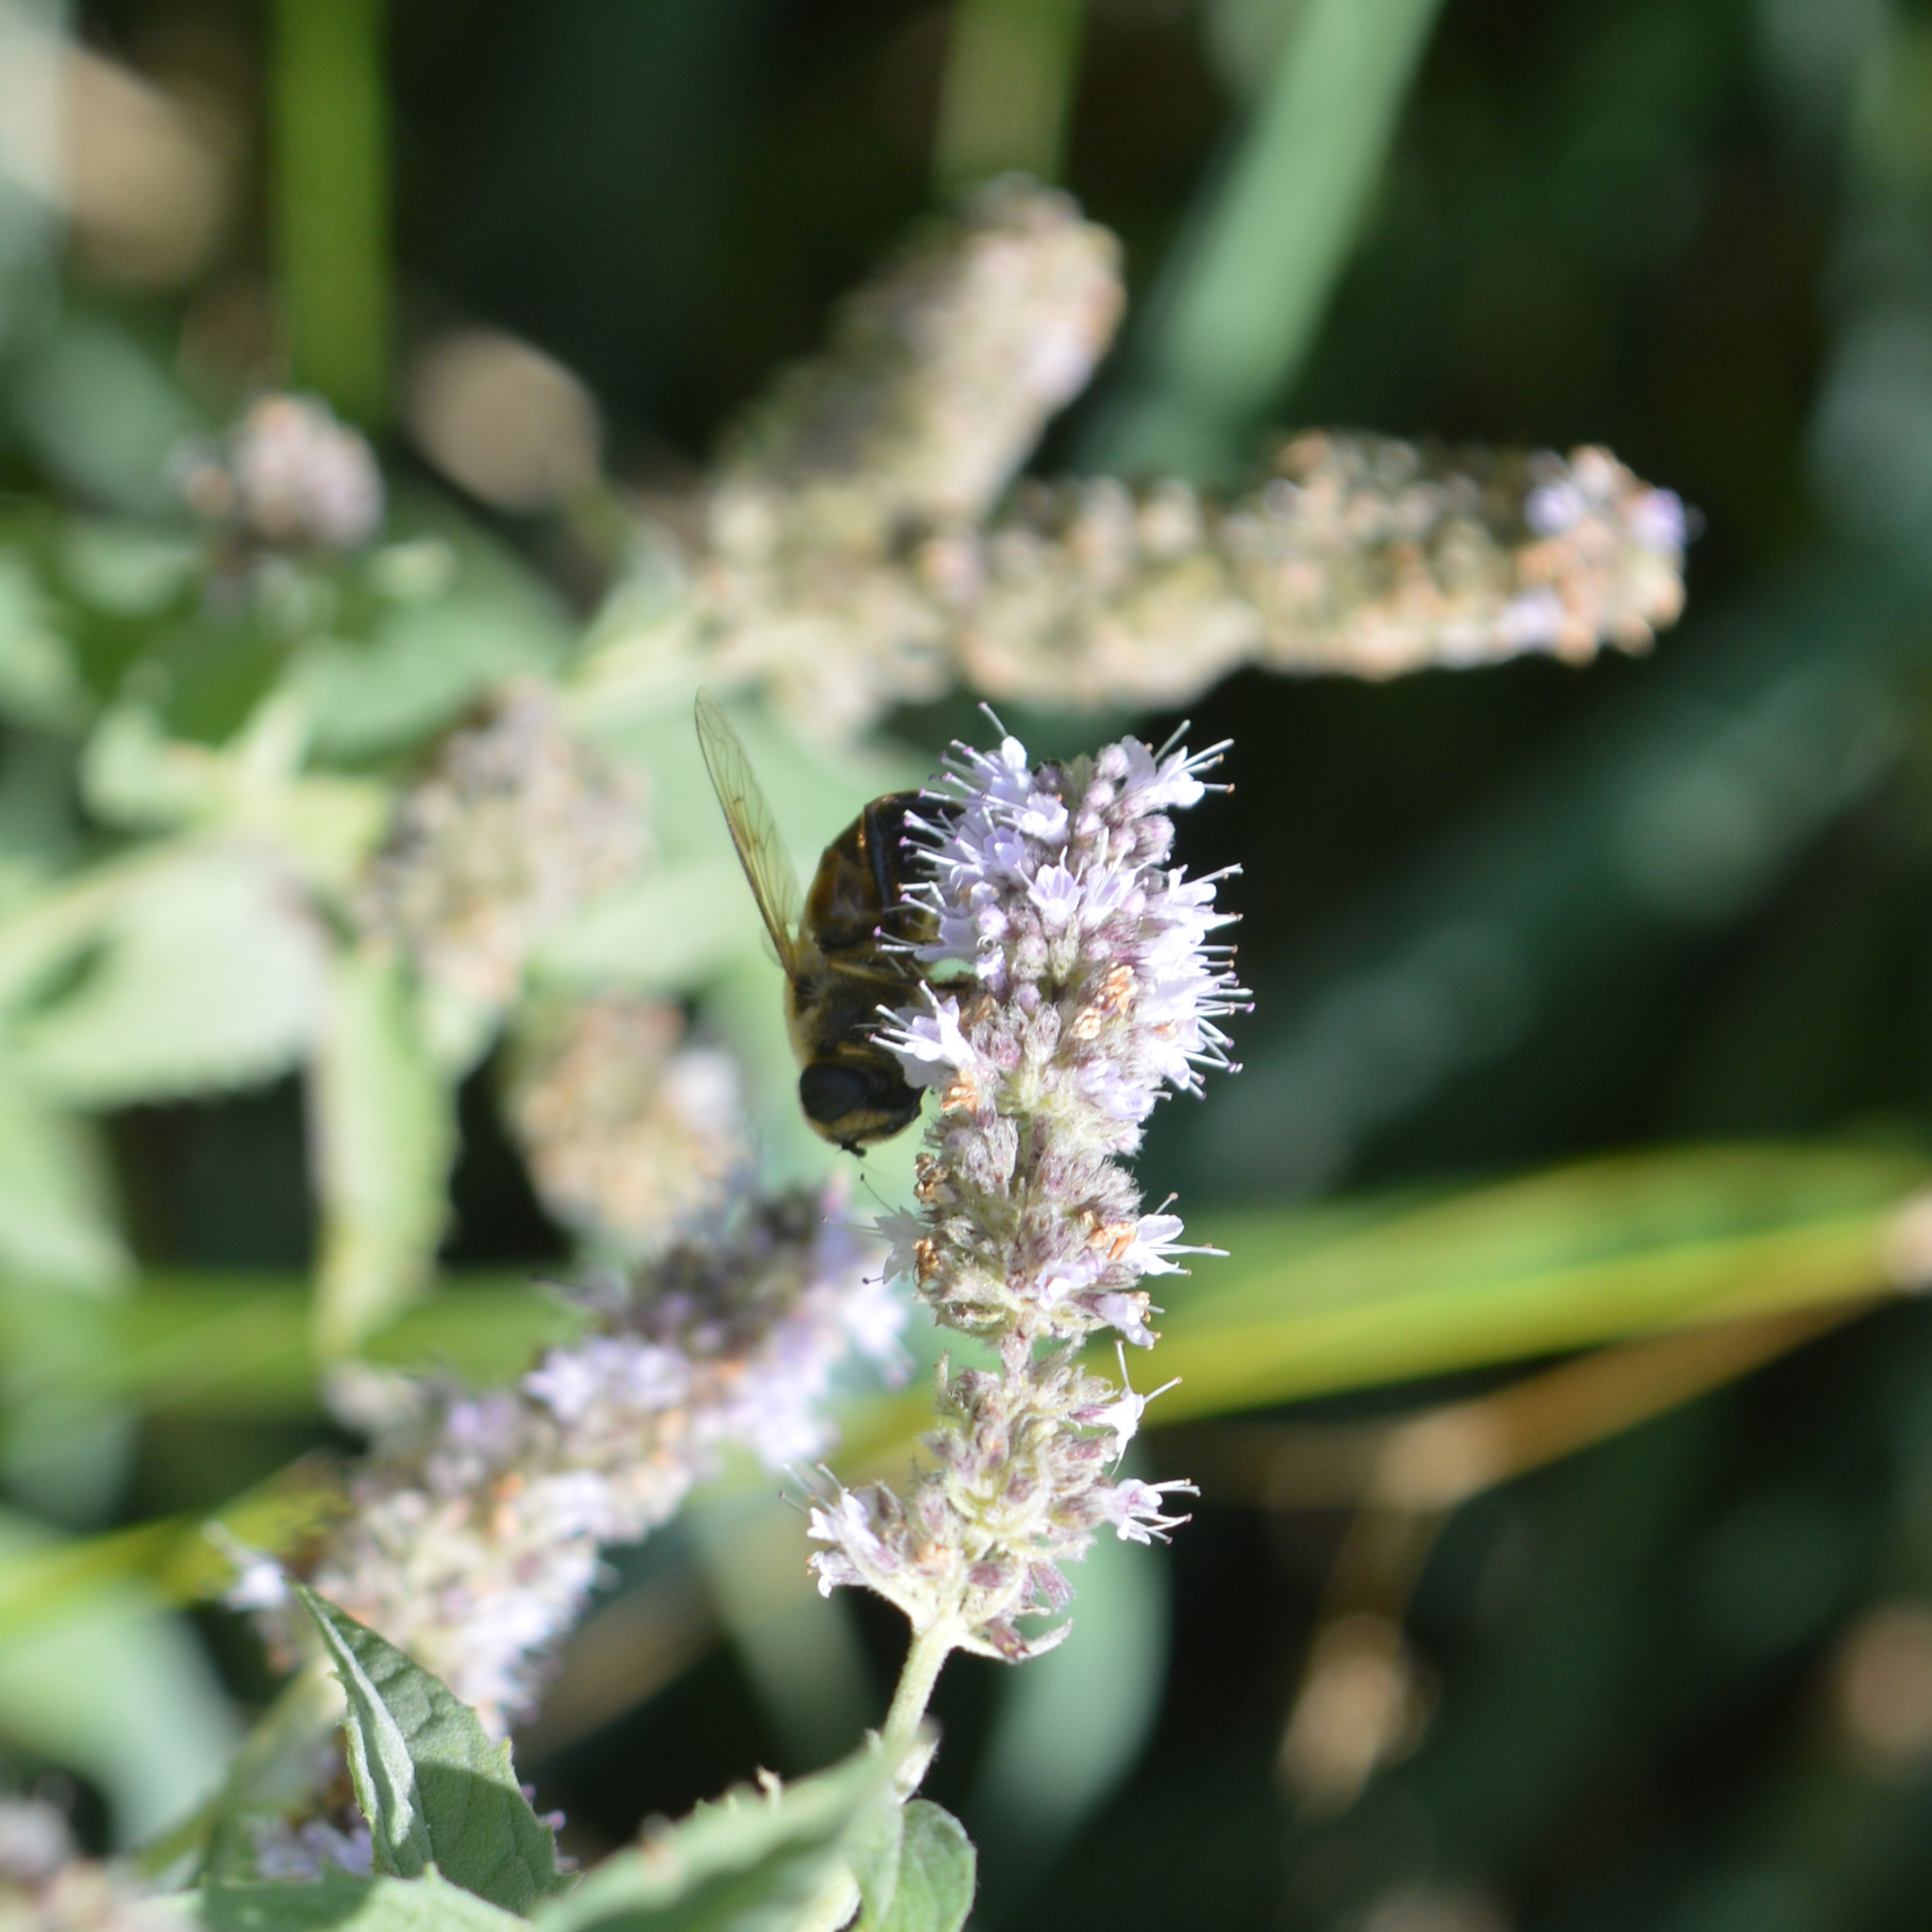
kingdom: Animalia
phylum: Arthropoda
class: Insecta
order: Diptera
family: Syrphidae
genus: Eristalis
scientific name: Eristalis tenax
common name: Drone fly
